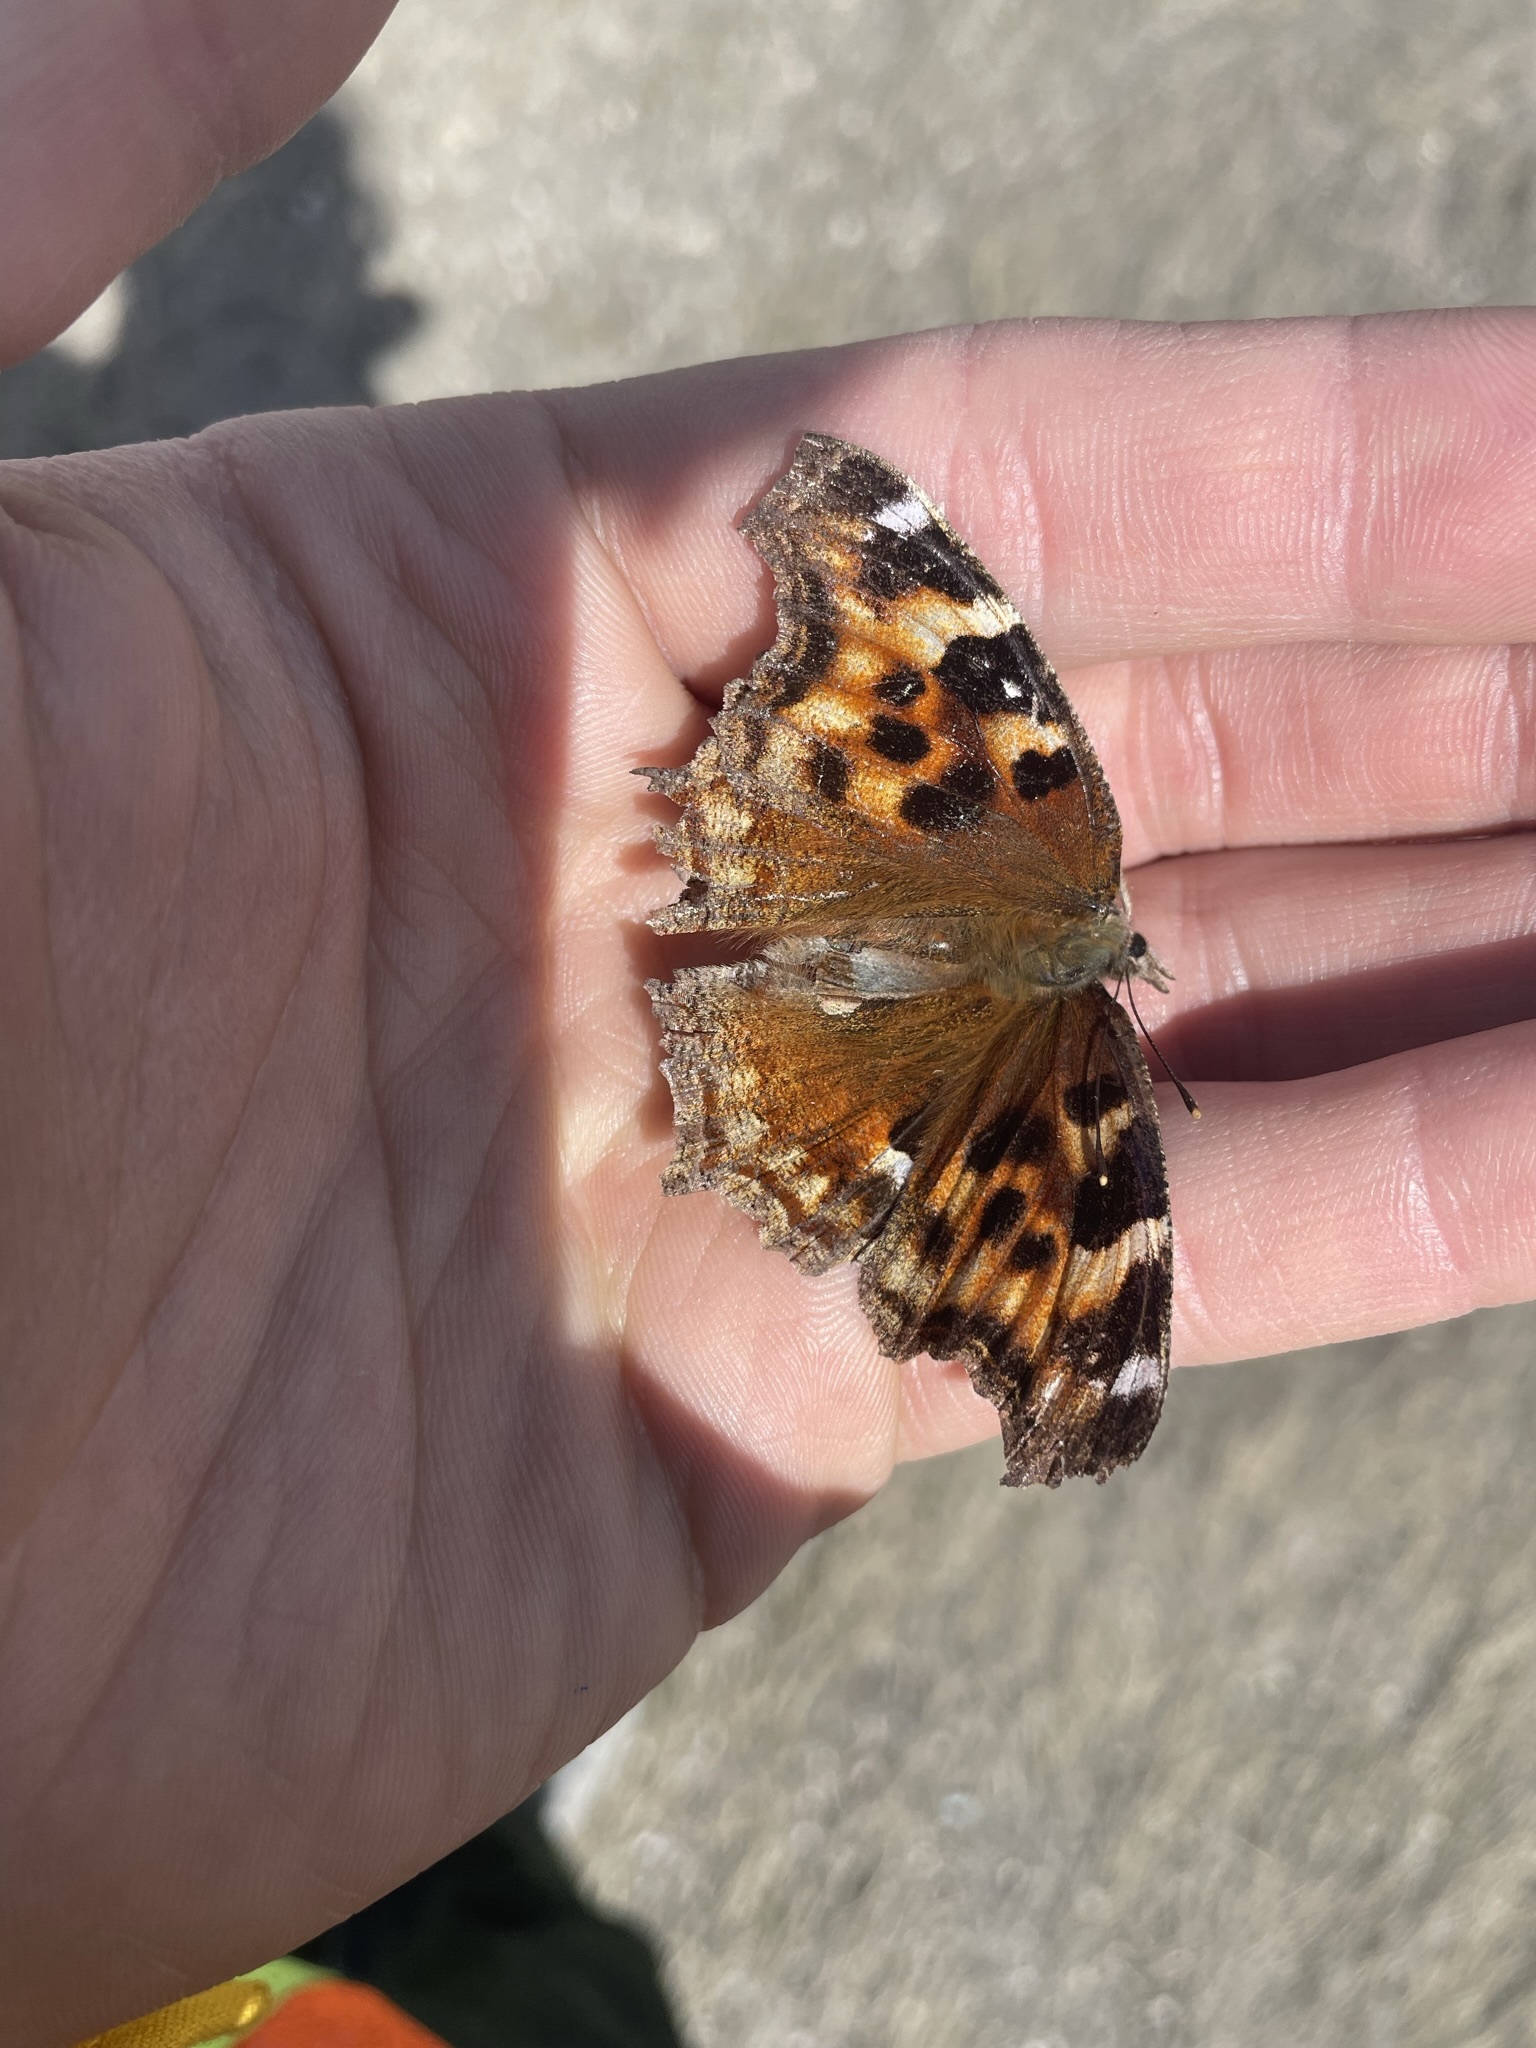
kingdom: Animalia
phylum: Arthropoda
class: Insecta
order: Lepidoptera
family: Nymphalidae
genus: Polygonia
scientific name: Polygonia vaualbum
